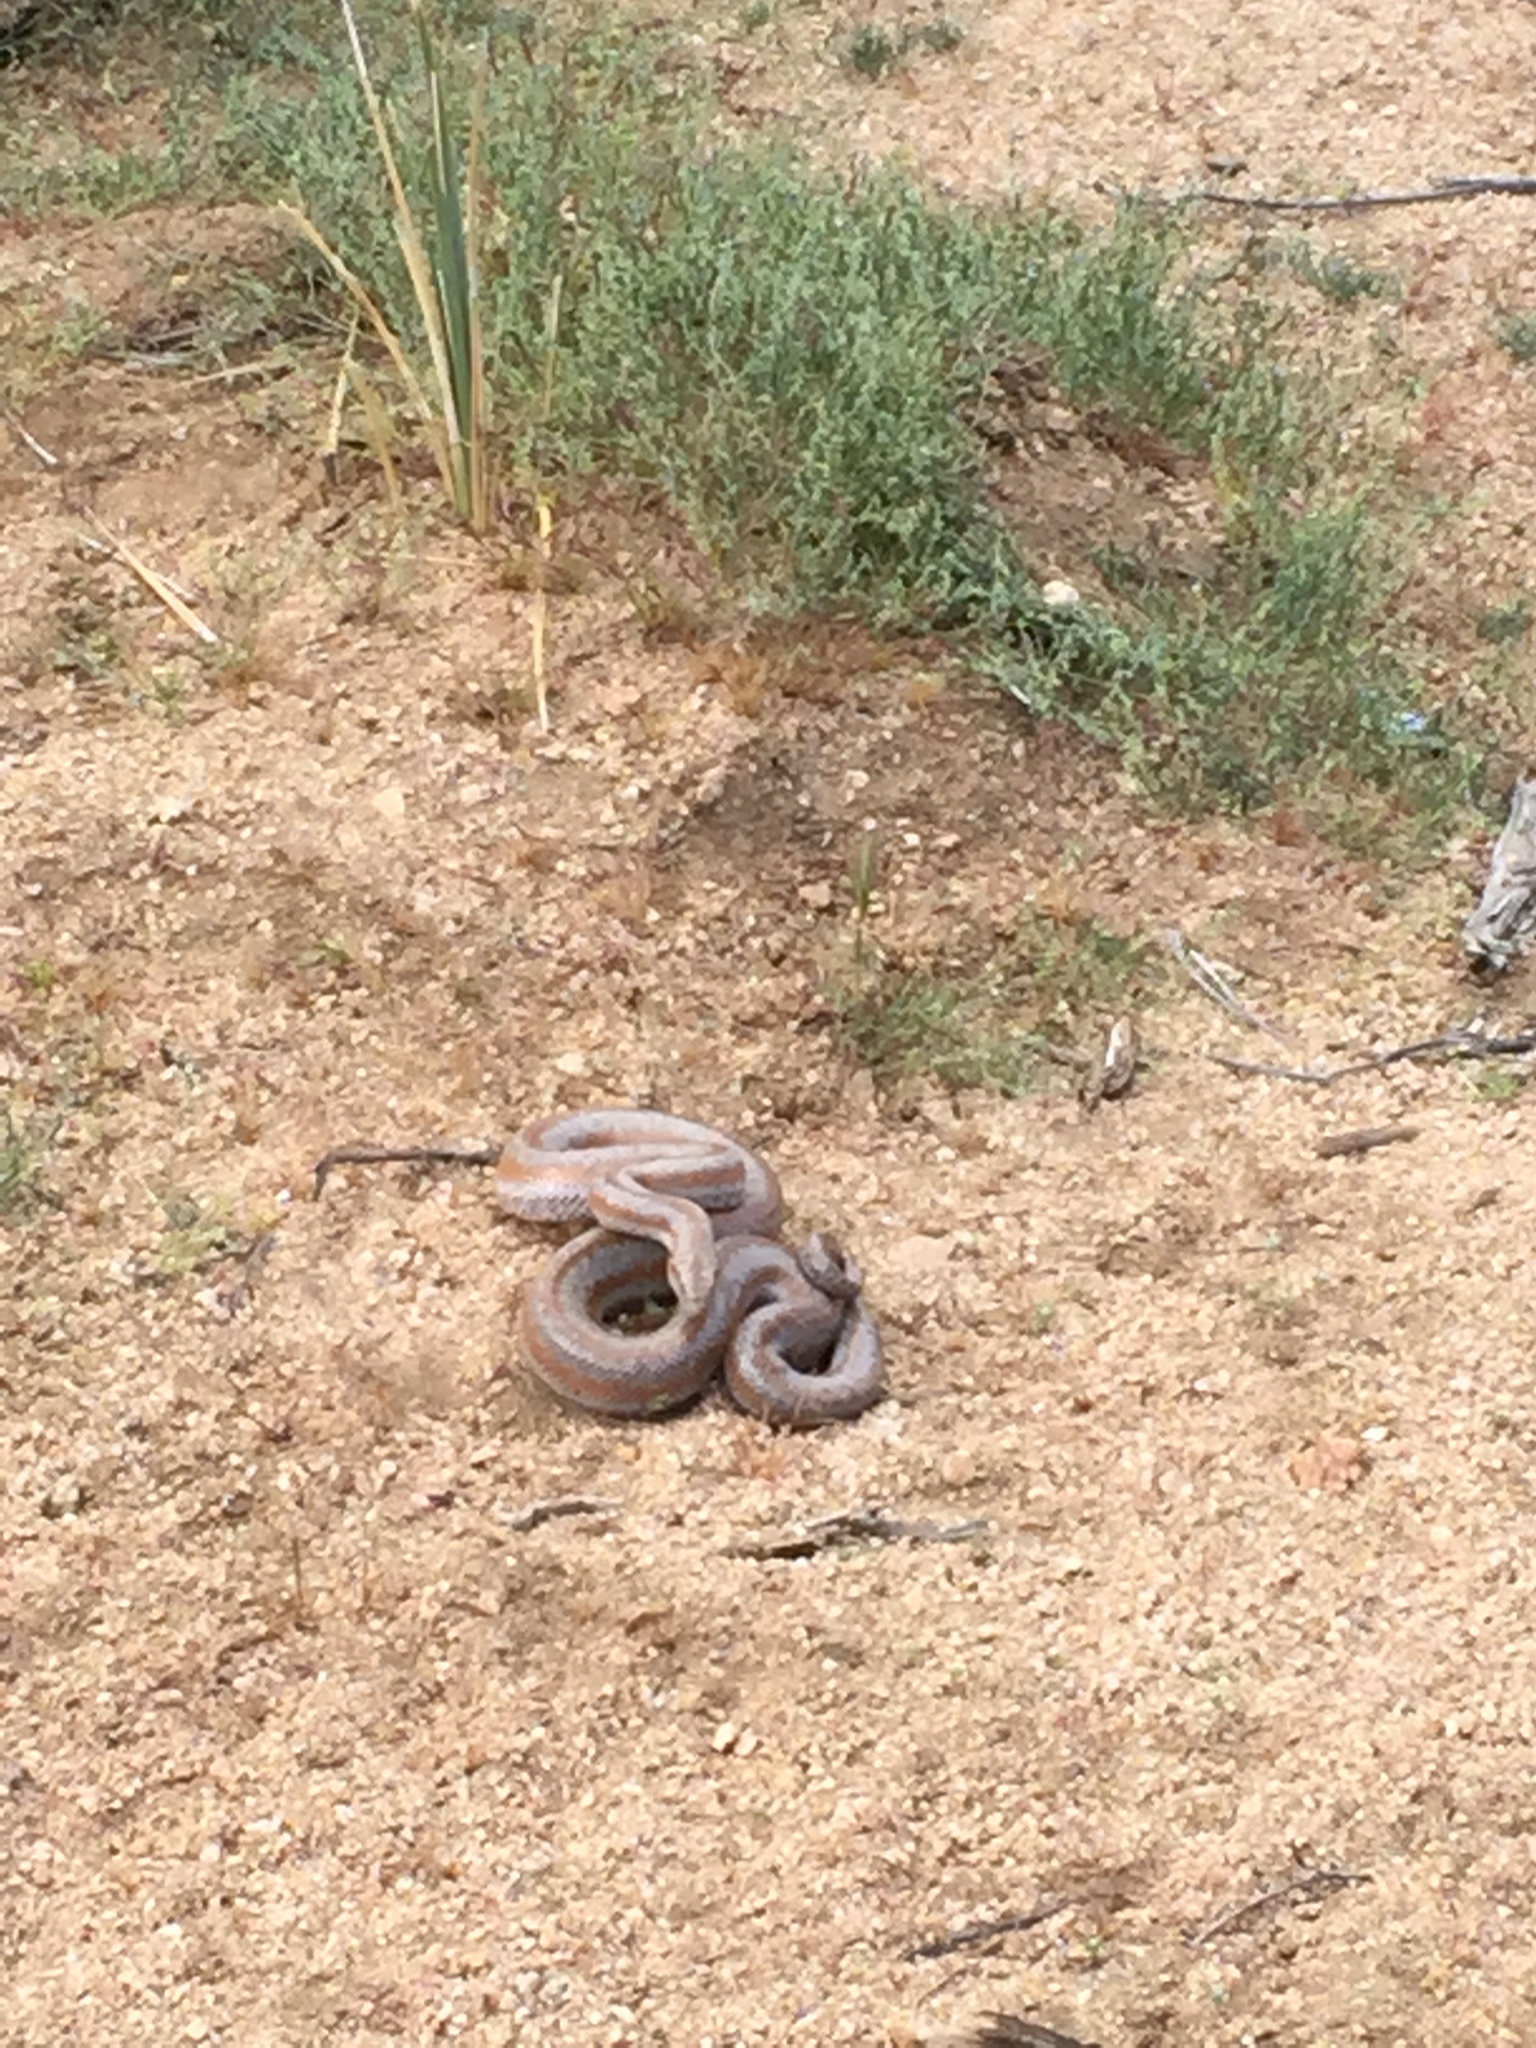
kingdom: Animalia
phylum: Chordata
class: Squamata
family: Boidae
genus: Lichanura
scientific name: Lichanura orcutti
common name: Northern three-lined boa
